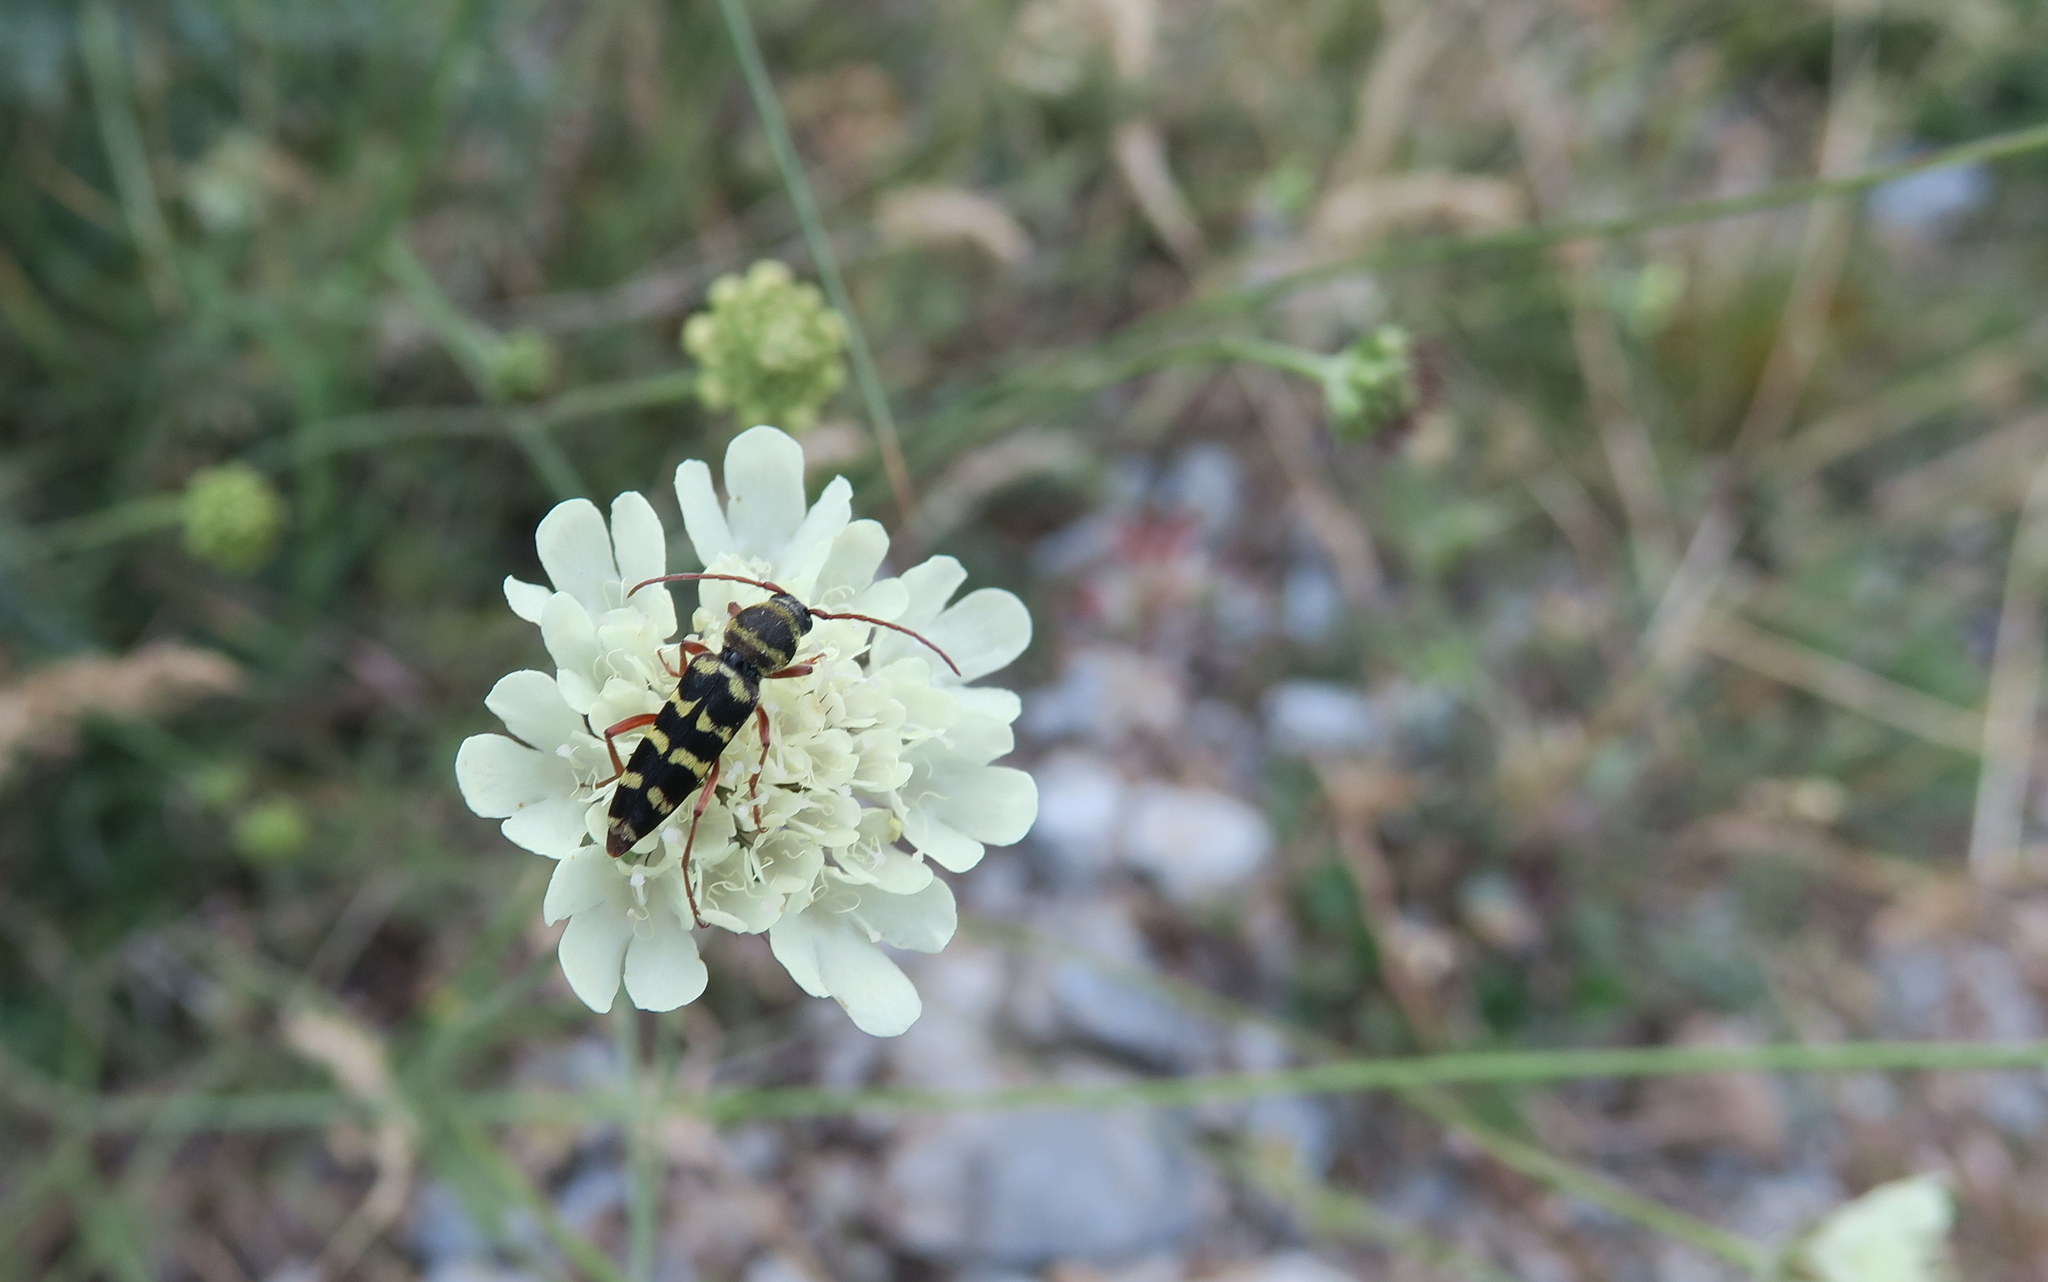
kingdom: Animalia
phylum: Arthropoda
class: Insecta
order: Coleoptera
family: Cerambycidae
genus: Plagionotus
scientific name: Plagionotus floralis
